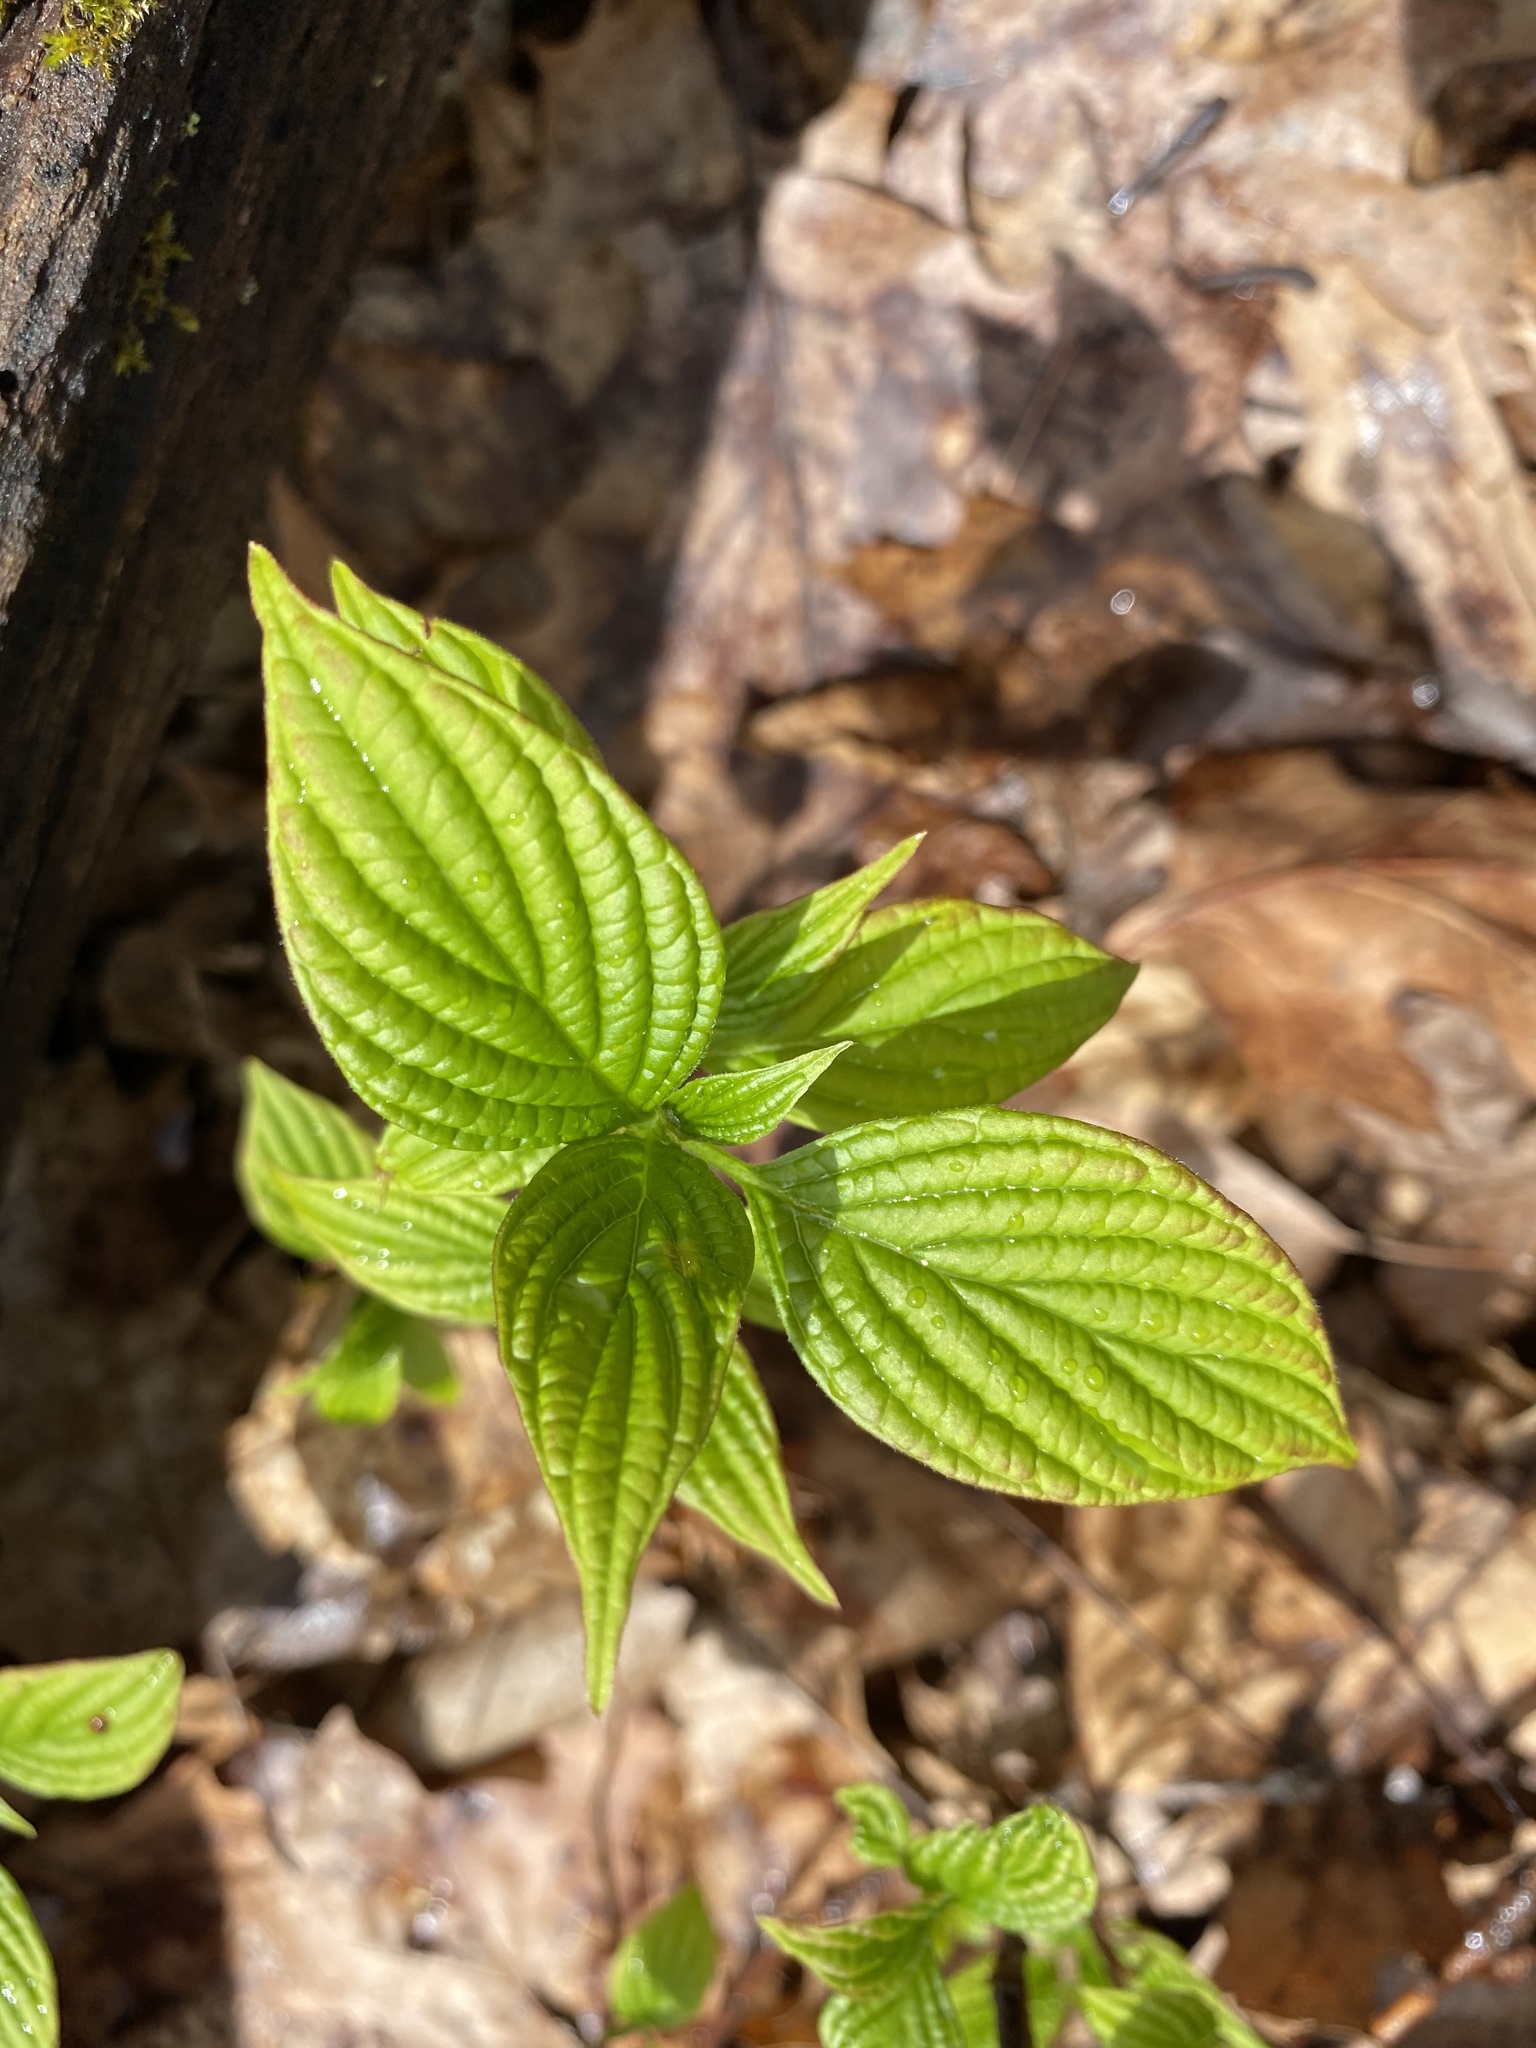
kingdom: Plantae
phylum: Tracheophyta
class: Magnoliopsida
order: Cornales
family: Cornaceae
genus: Cornus
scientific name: Cornus alternifolia
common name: Pagoda dogwood
